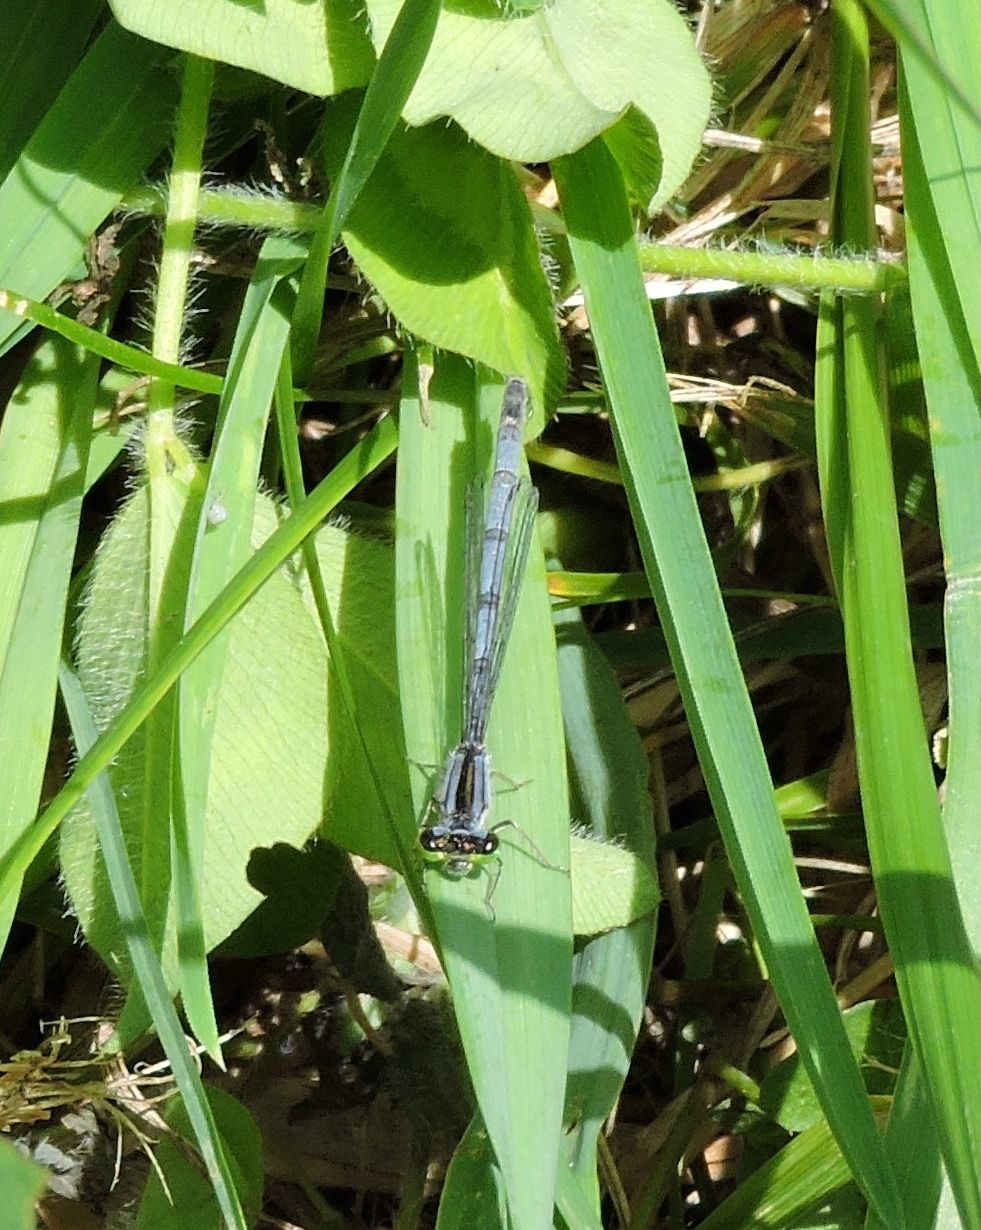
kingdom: Animalia
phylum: Arthropoda
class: Insecta
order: Odonata
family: Coenagrionidae
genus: Ischnura
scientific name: Ischnura verticalis
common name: Eastern forktail
